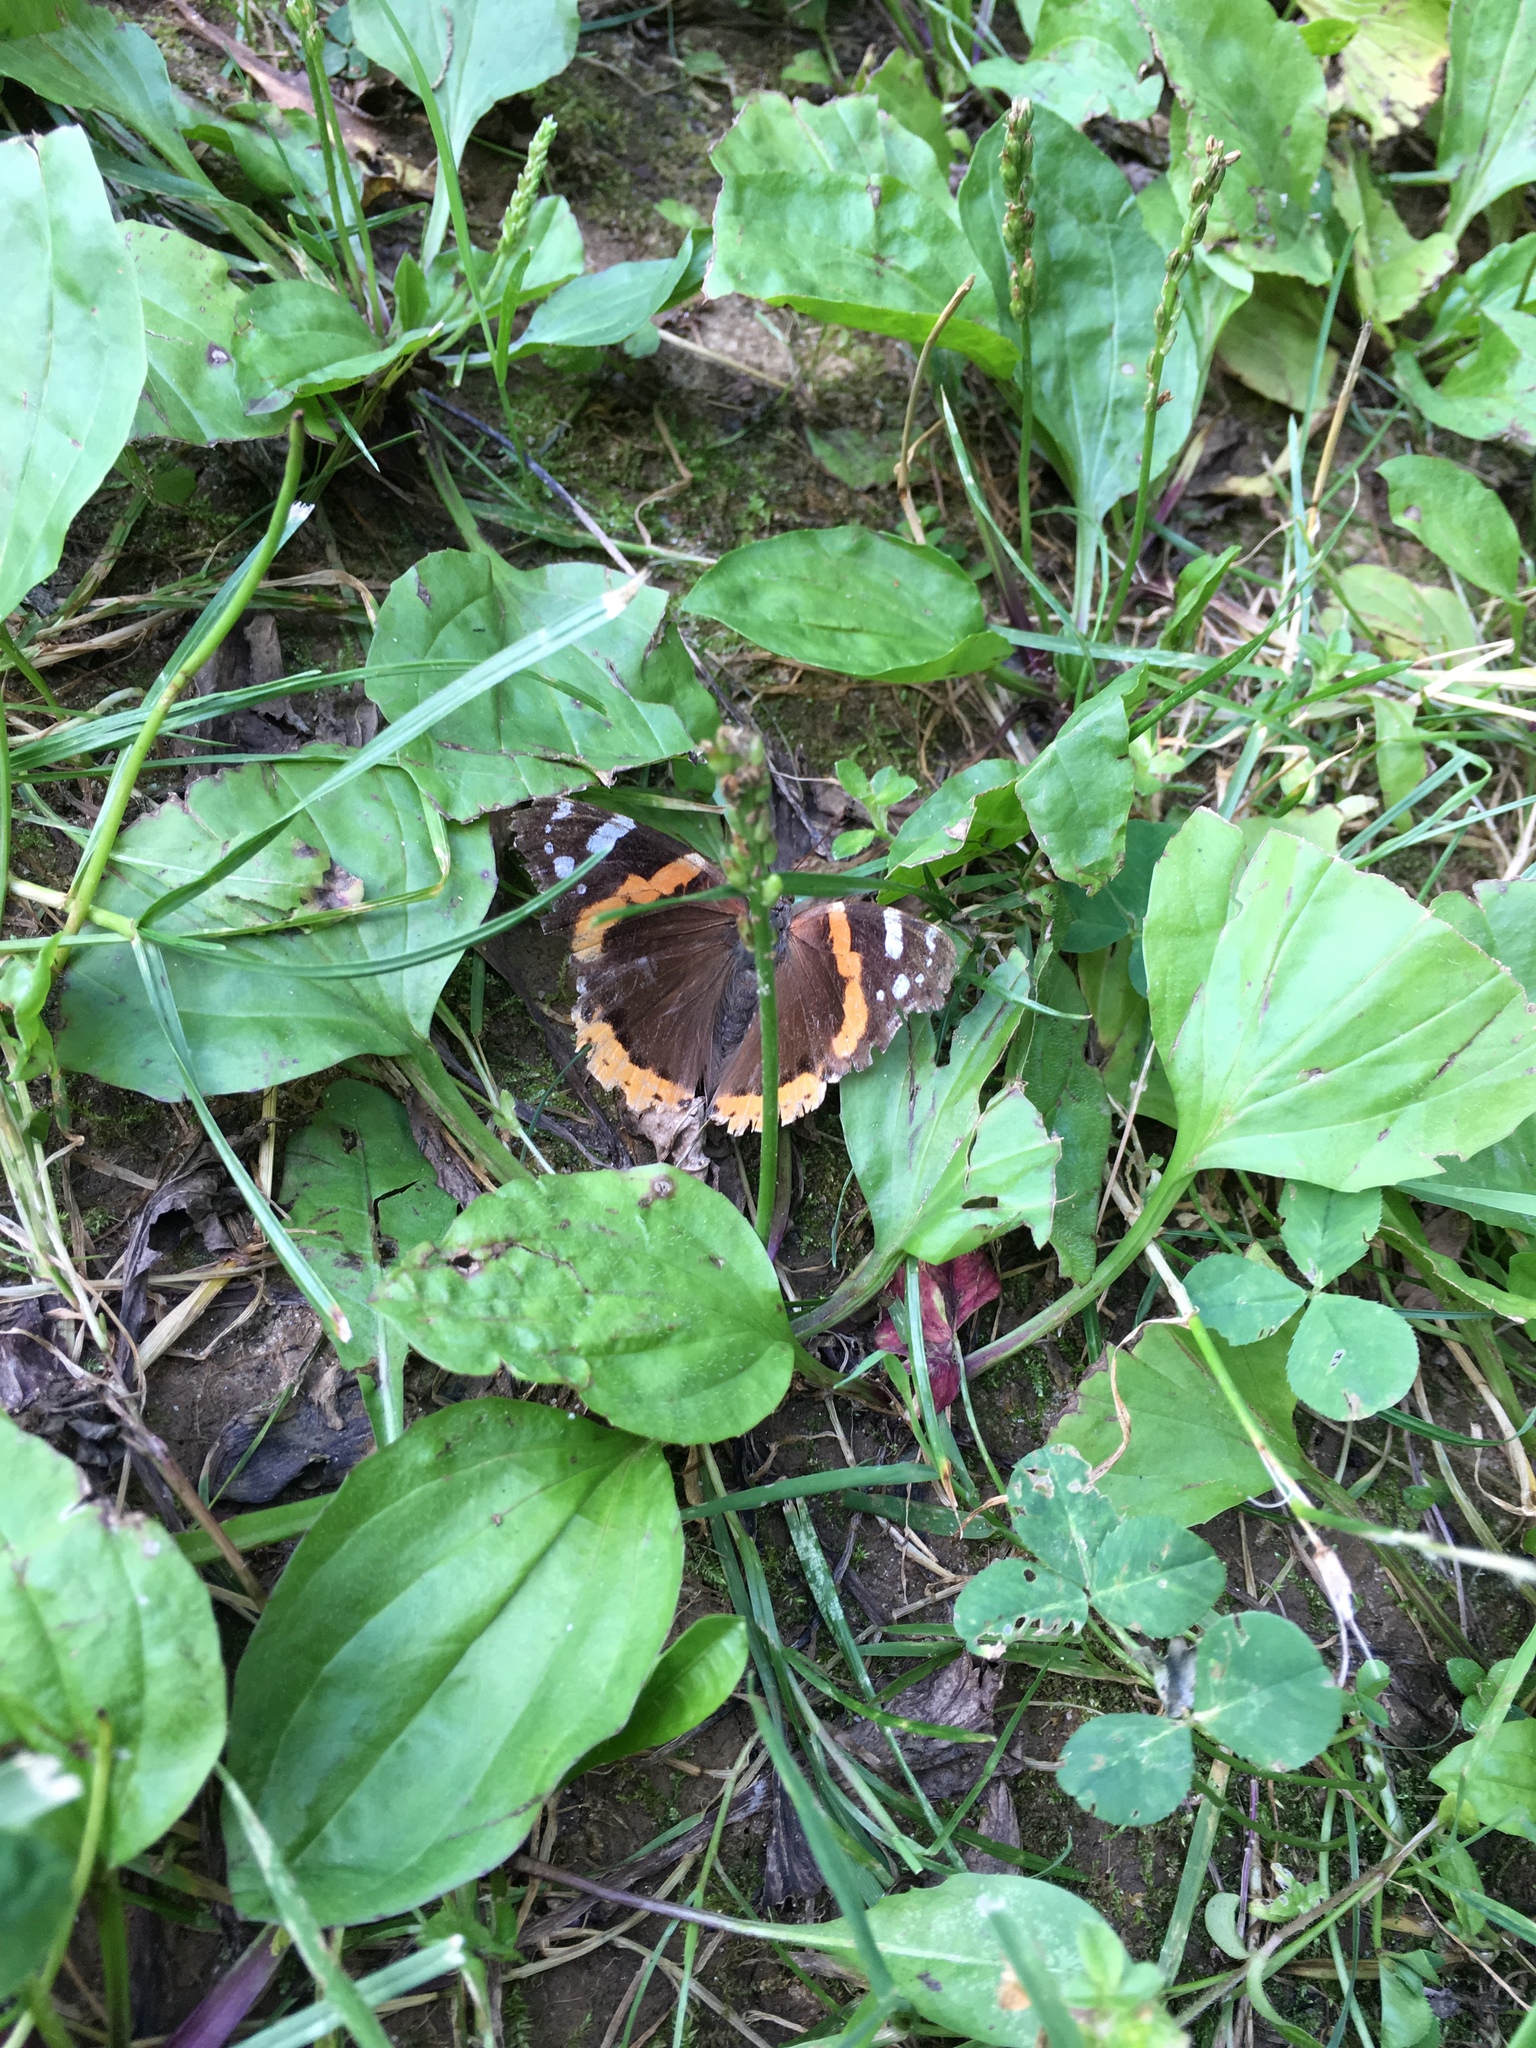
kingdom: Animalia
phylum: Arthropoda
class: Insecta
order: Lepidoptera
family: Nymphalidae
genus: Vanessa
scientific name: Vanessa atalanta
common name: Red admiral
